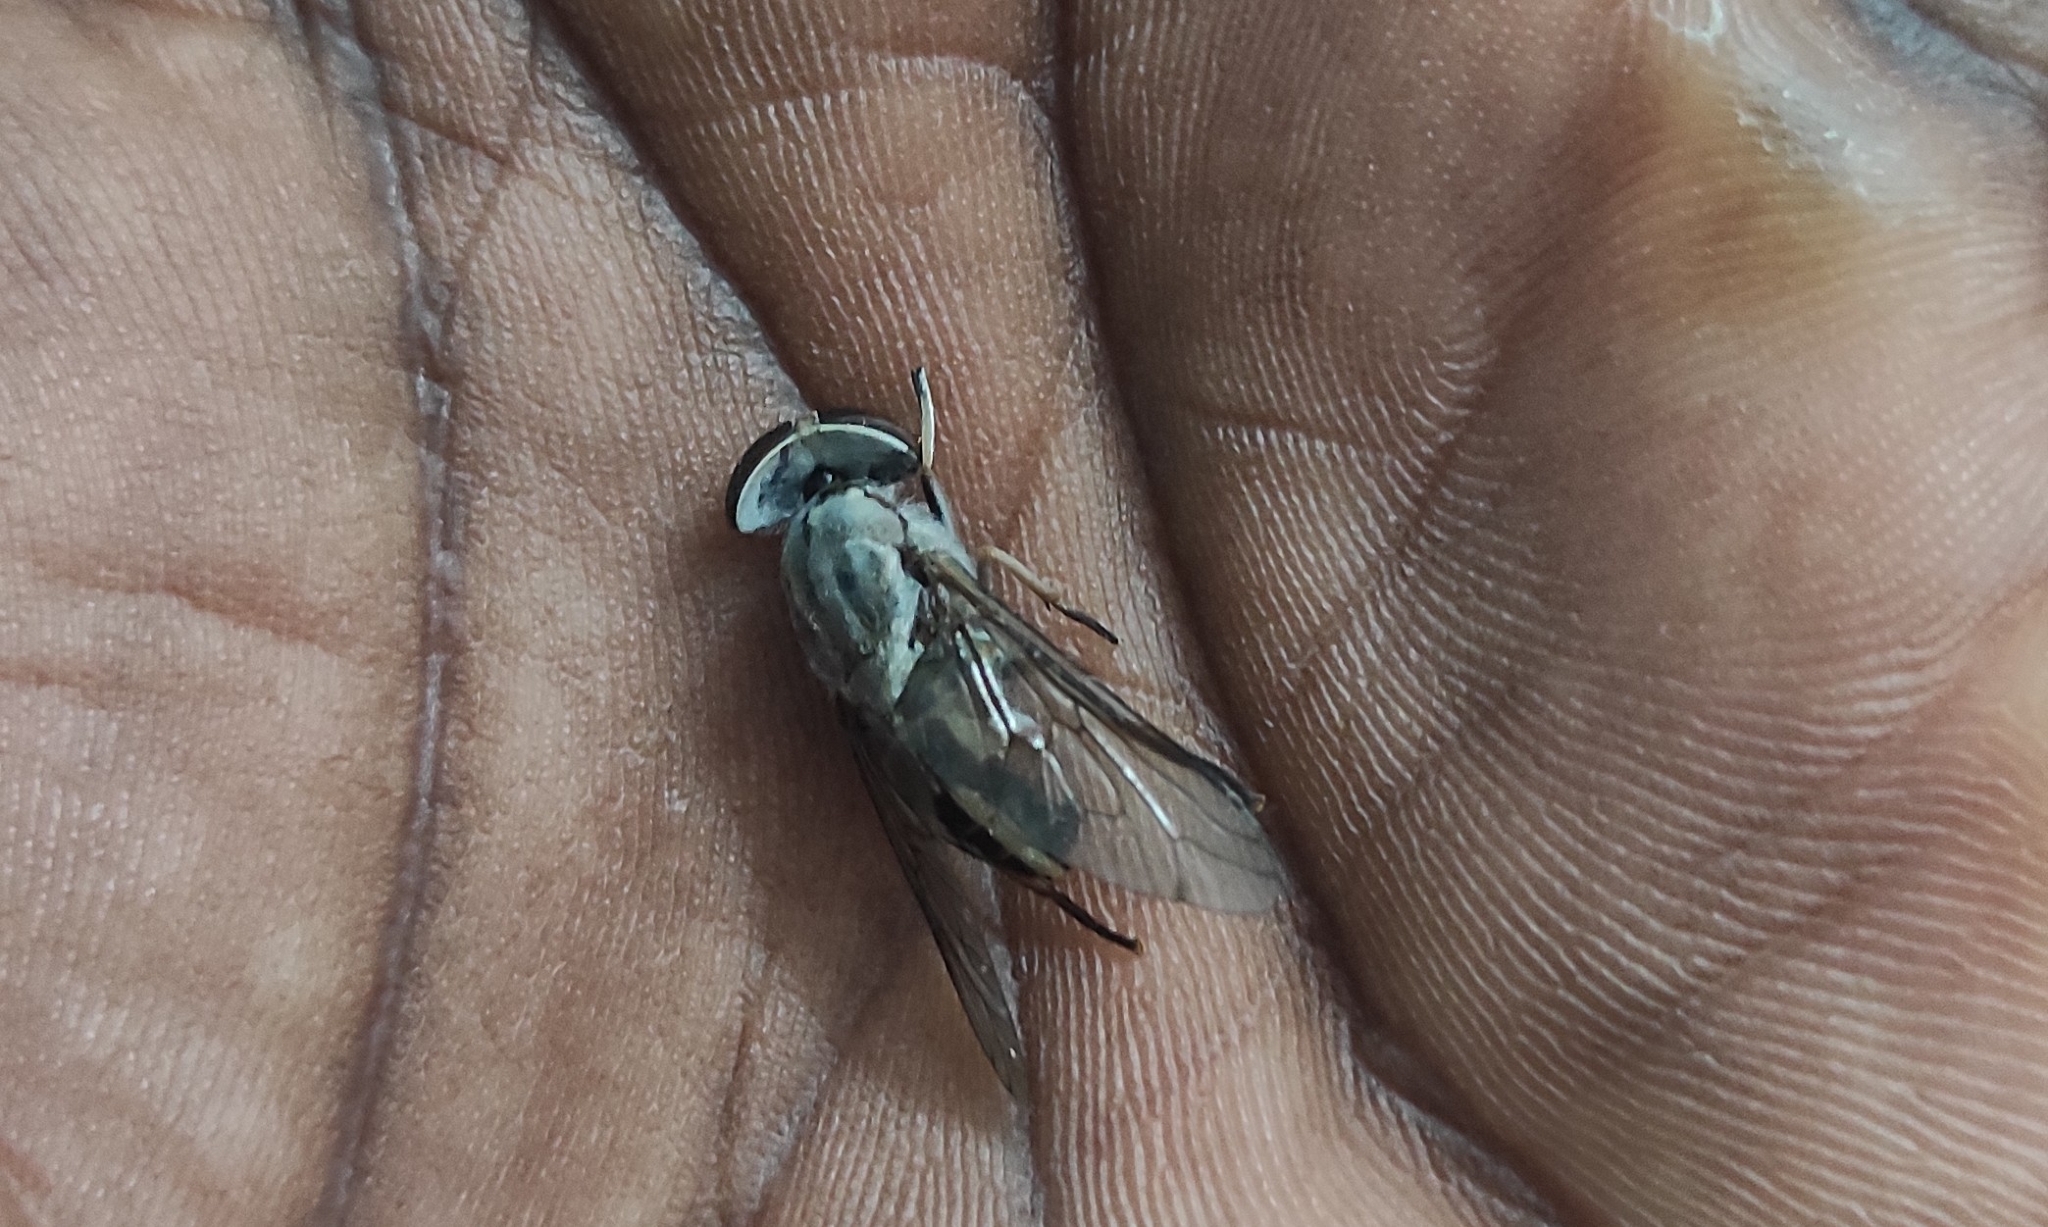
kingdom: Animalia
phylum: Arthropoda
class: Insecta
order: Diptera
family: Tabanidae
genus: Tabanus
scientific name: Tabanus striatus
